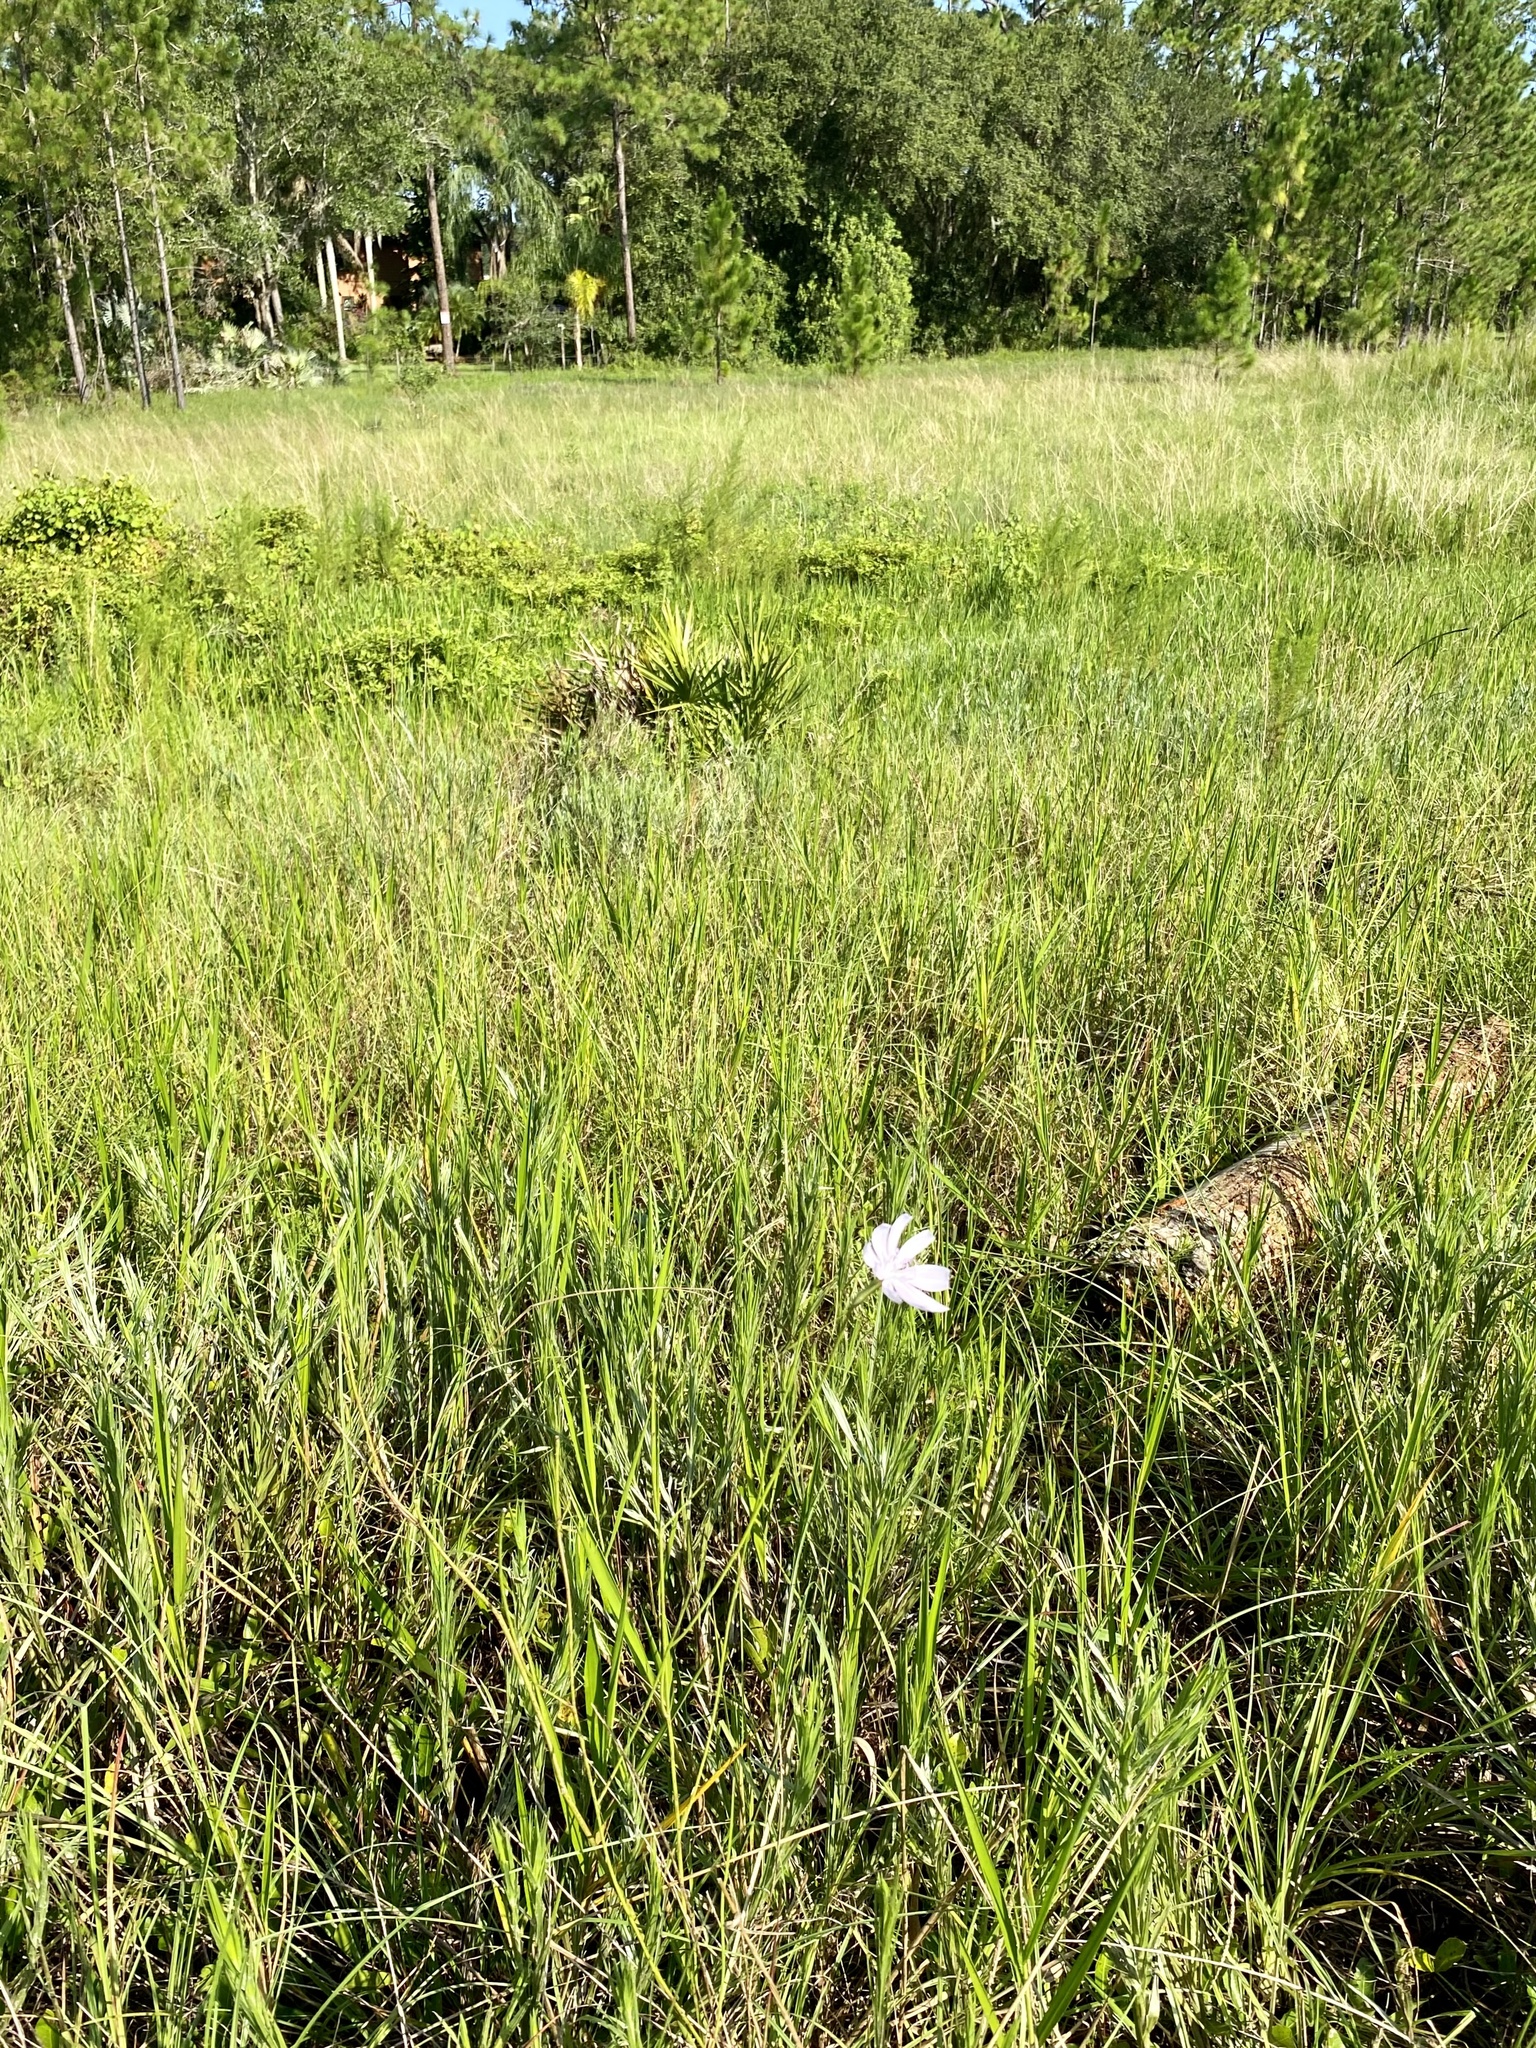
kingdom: Plantae
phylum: Tracheophyta
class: Magnoliopsida
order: Asterales
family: Asteraceae
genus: Lygodesmia
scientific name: Lygodesmia aphylla
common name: Rose-rush
